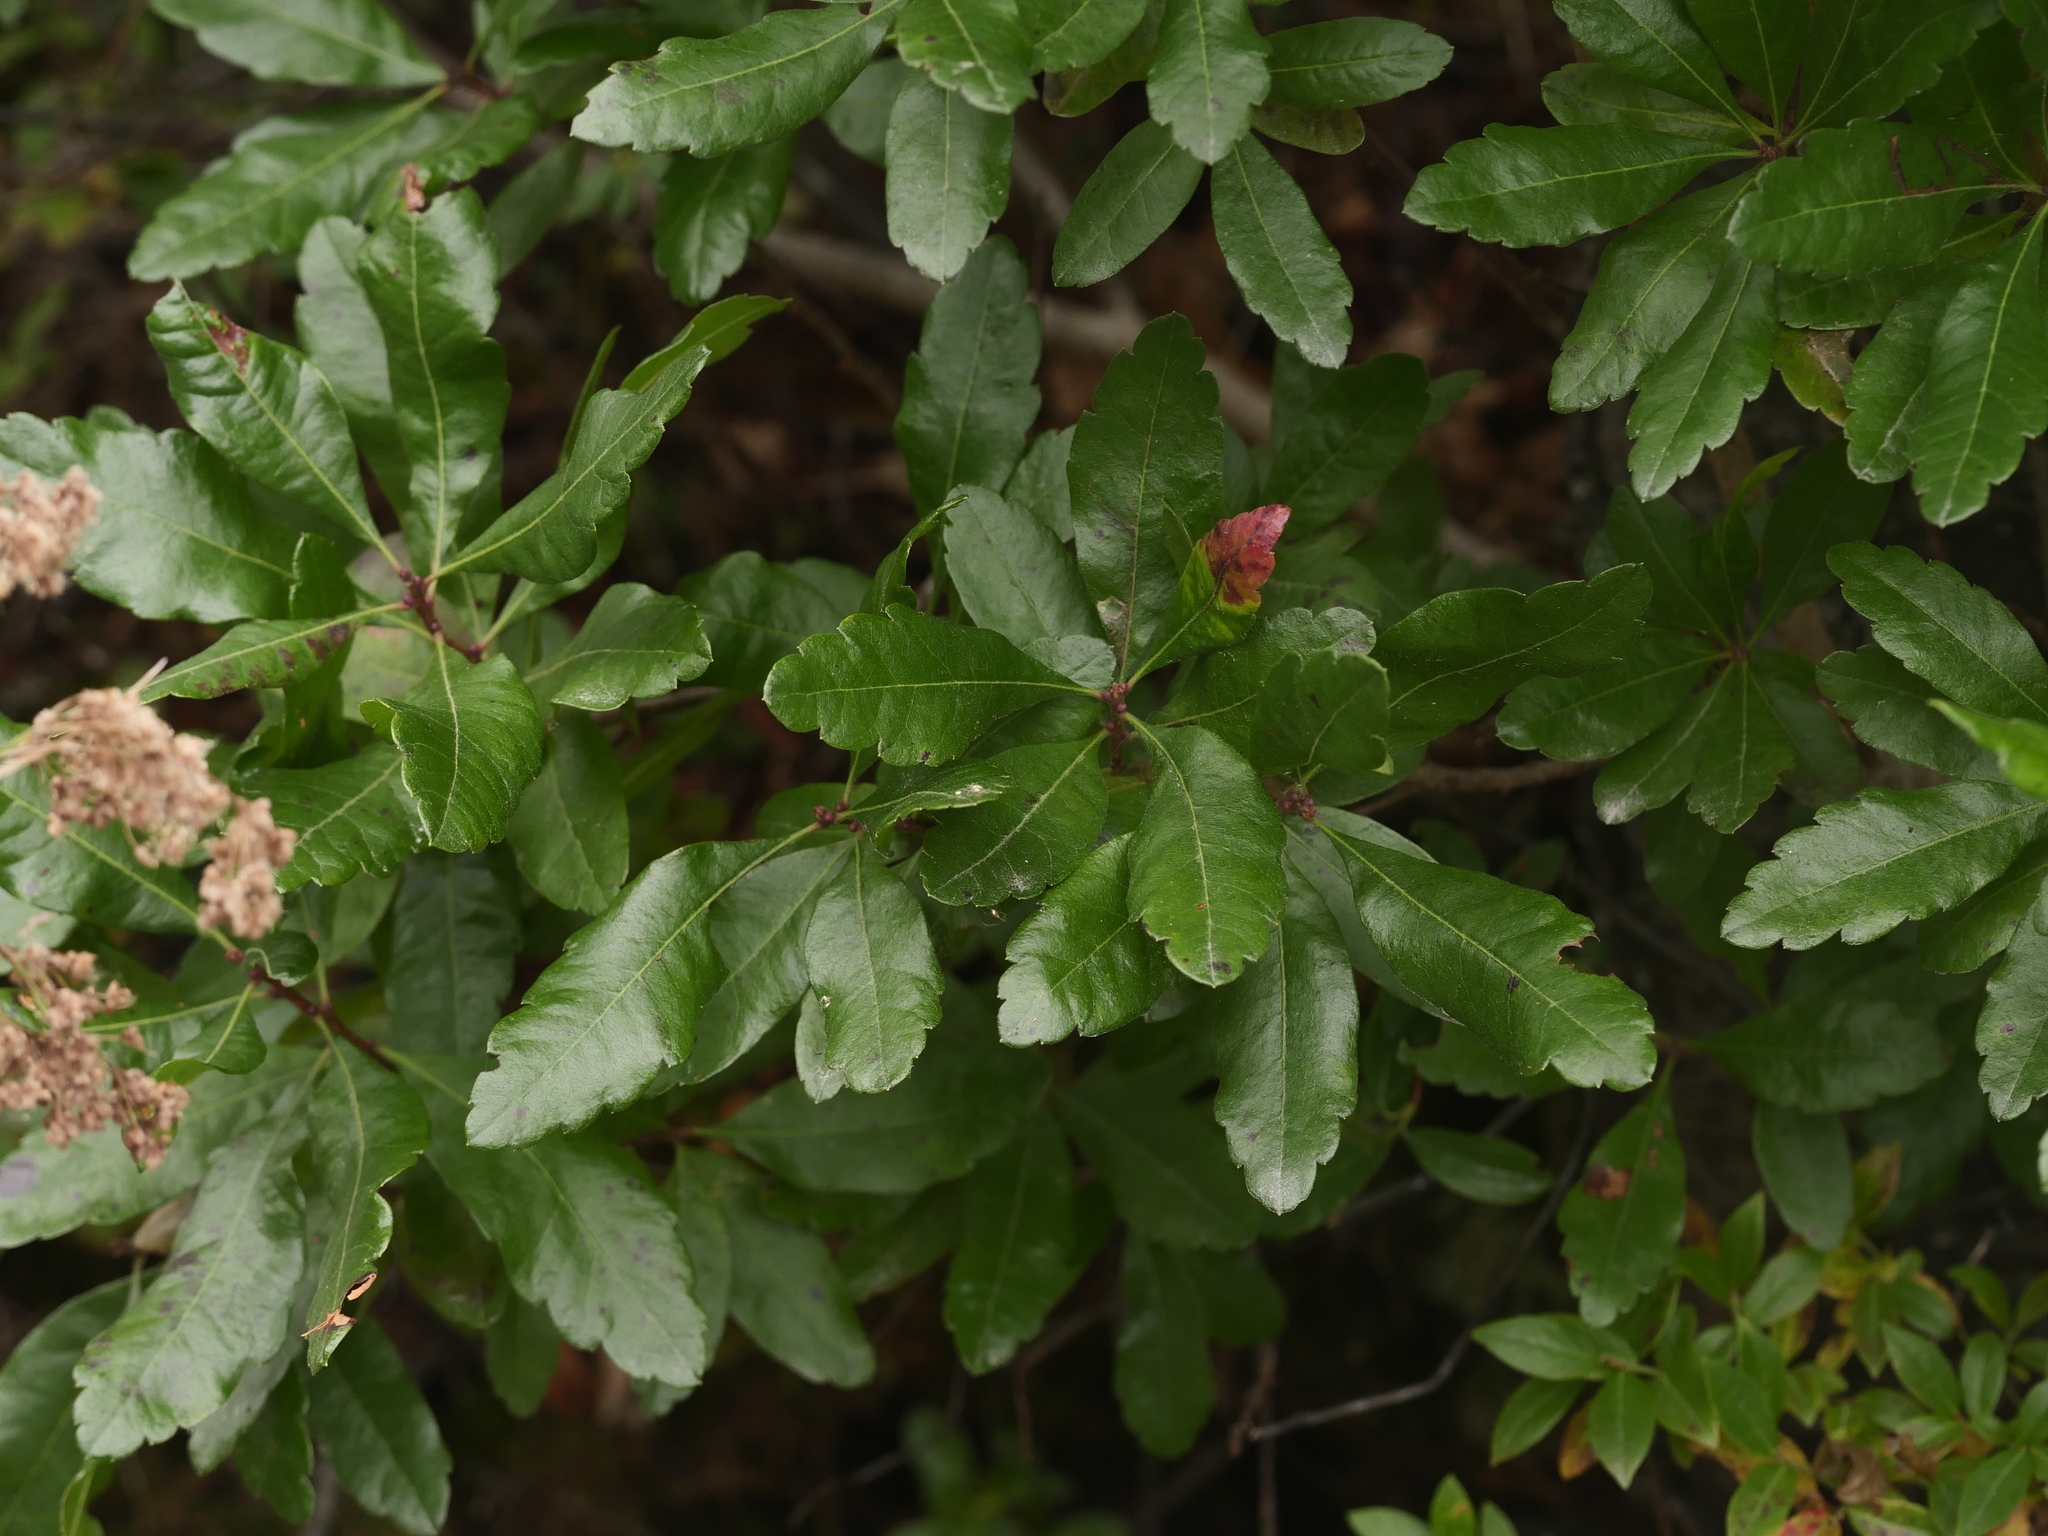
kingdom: Plantae
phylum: Tracheophyta
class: Magnoliopsida
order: Fagales
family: Myricaceae
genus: Morella
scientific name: Morella pensylvanica
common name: Northern bayberry
